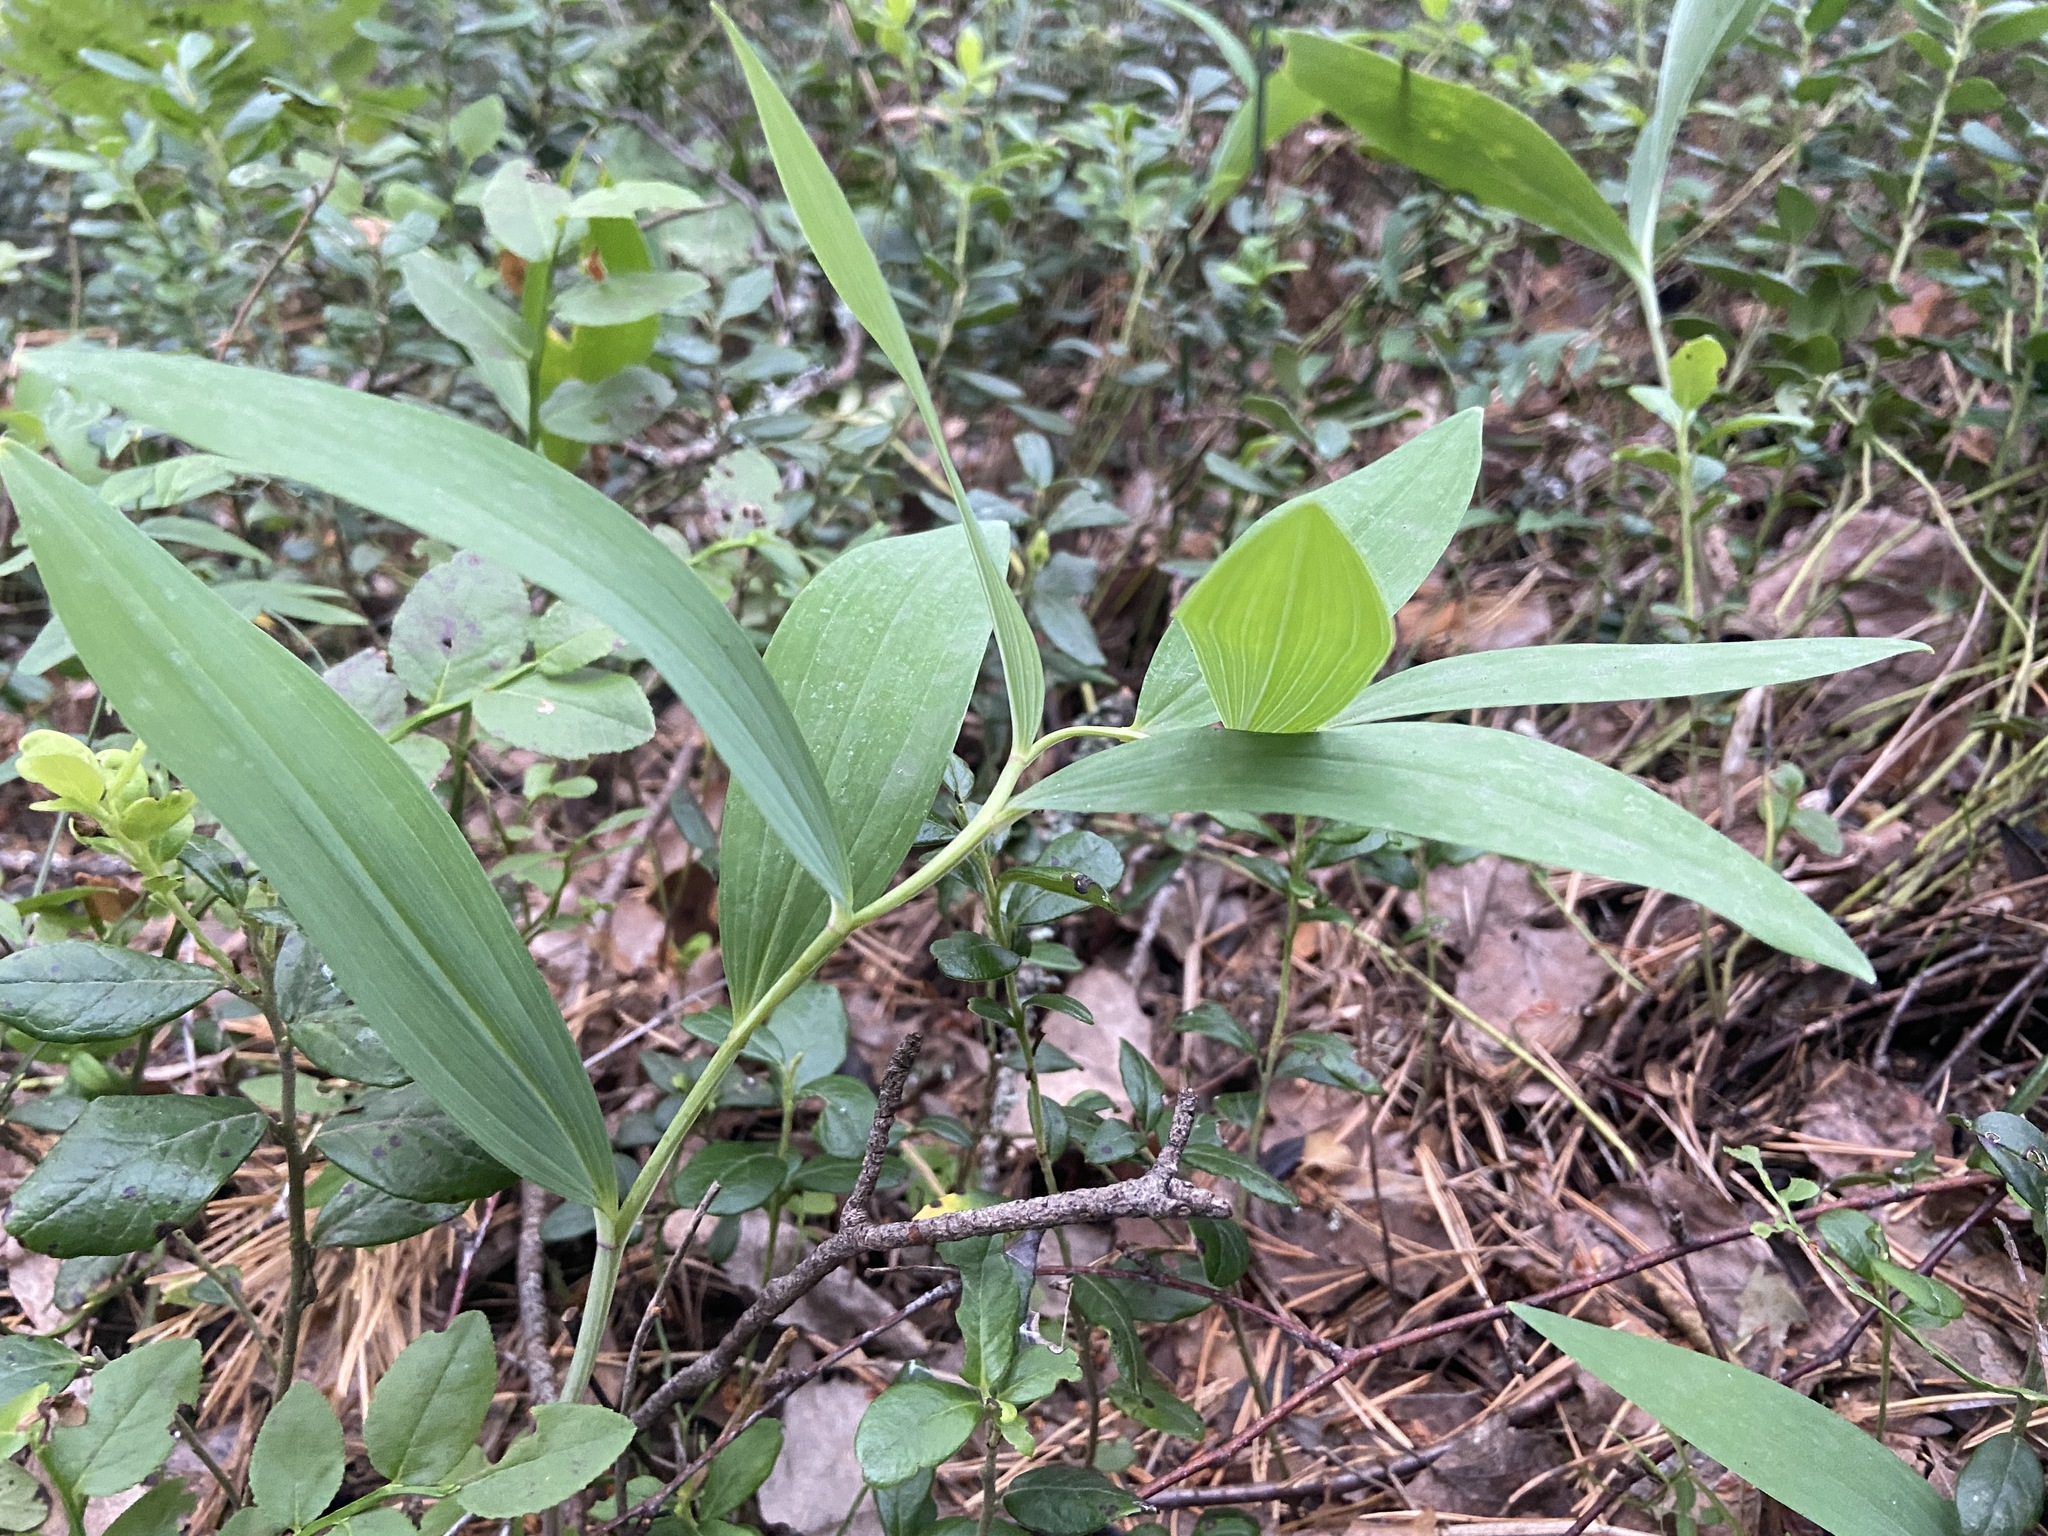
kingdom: Plantae
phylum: Tracheophyta
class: Liliopsida
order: Asparagales
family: Asparagaceae
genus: Polygonatum
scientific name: Polygonatum odoratum
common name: Angular solomon's-seal
